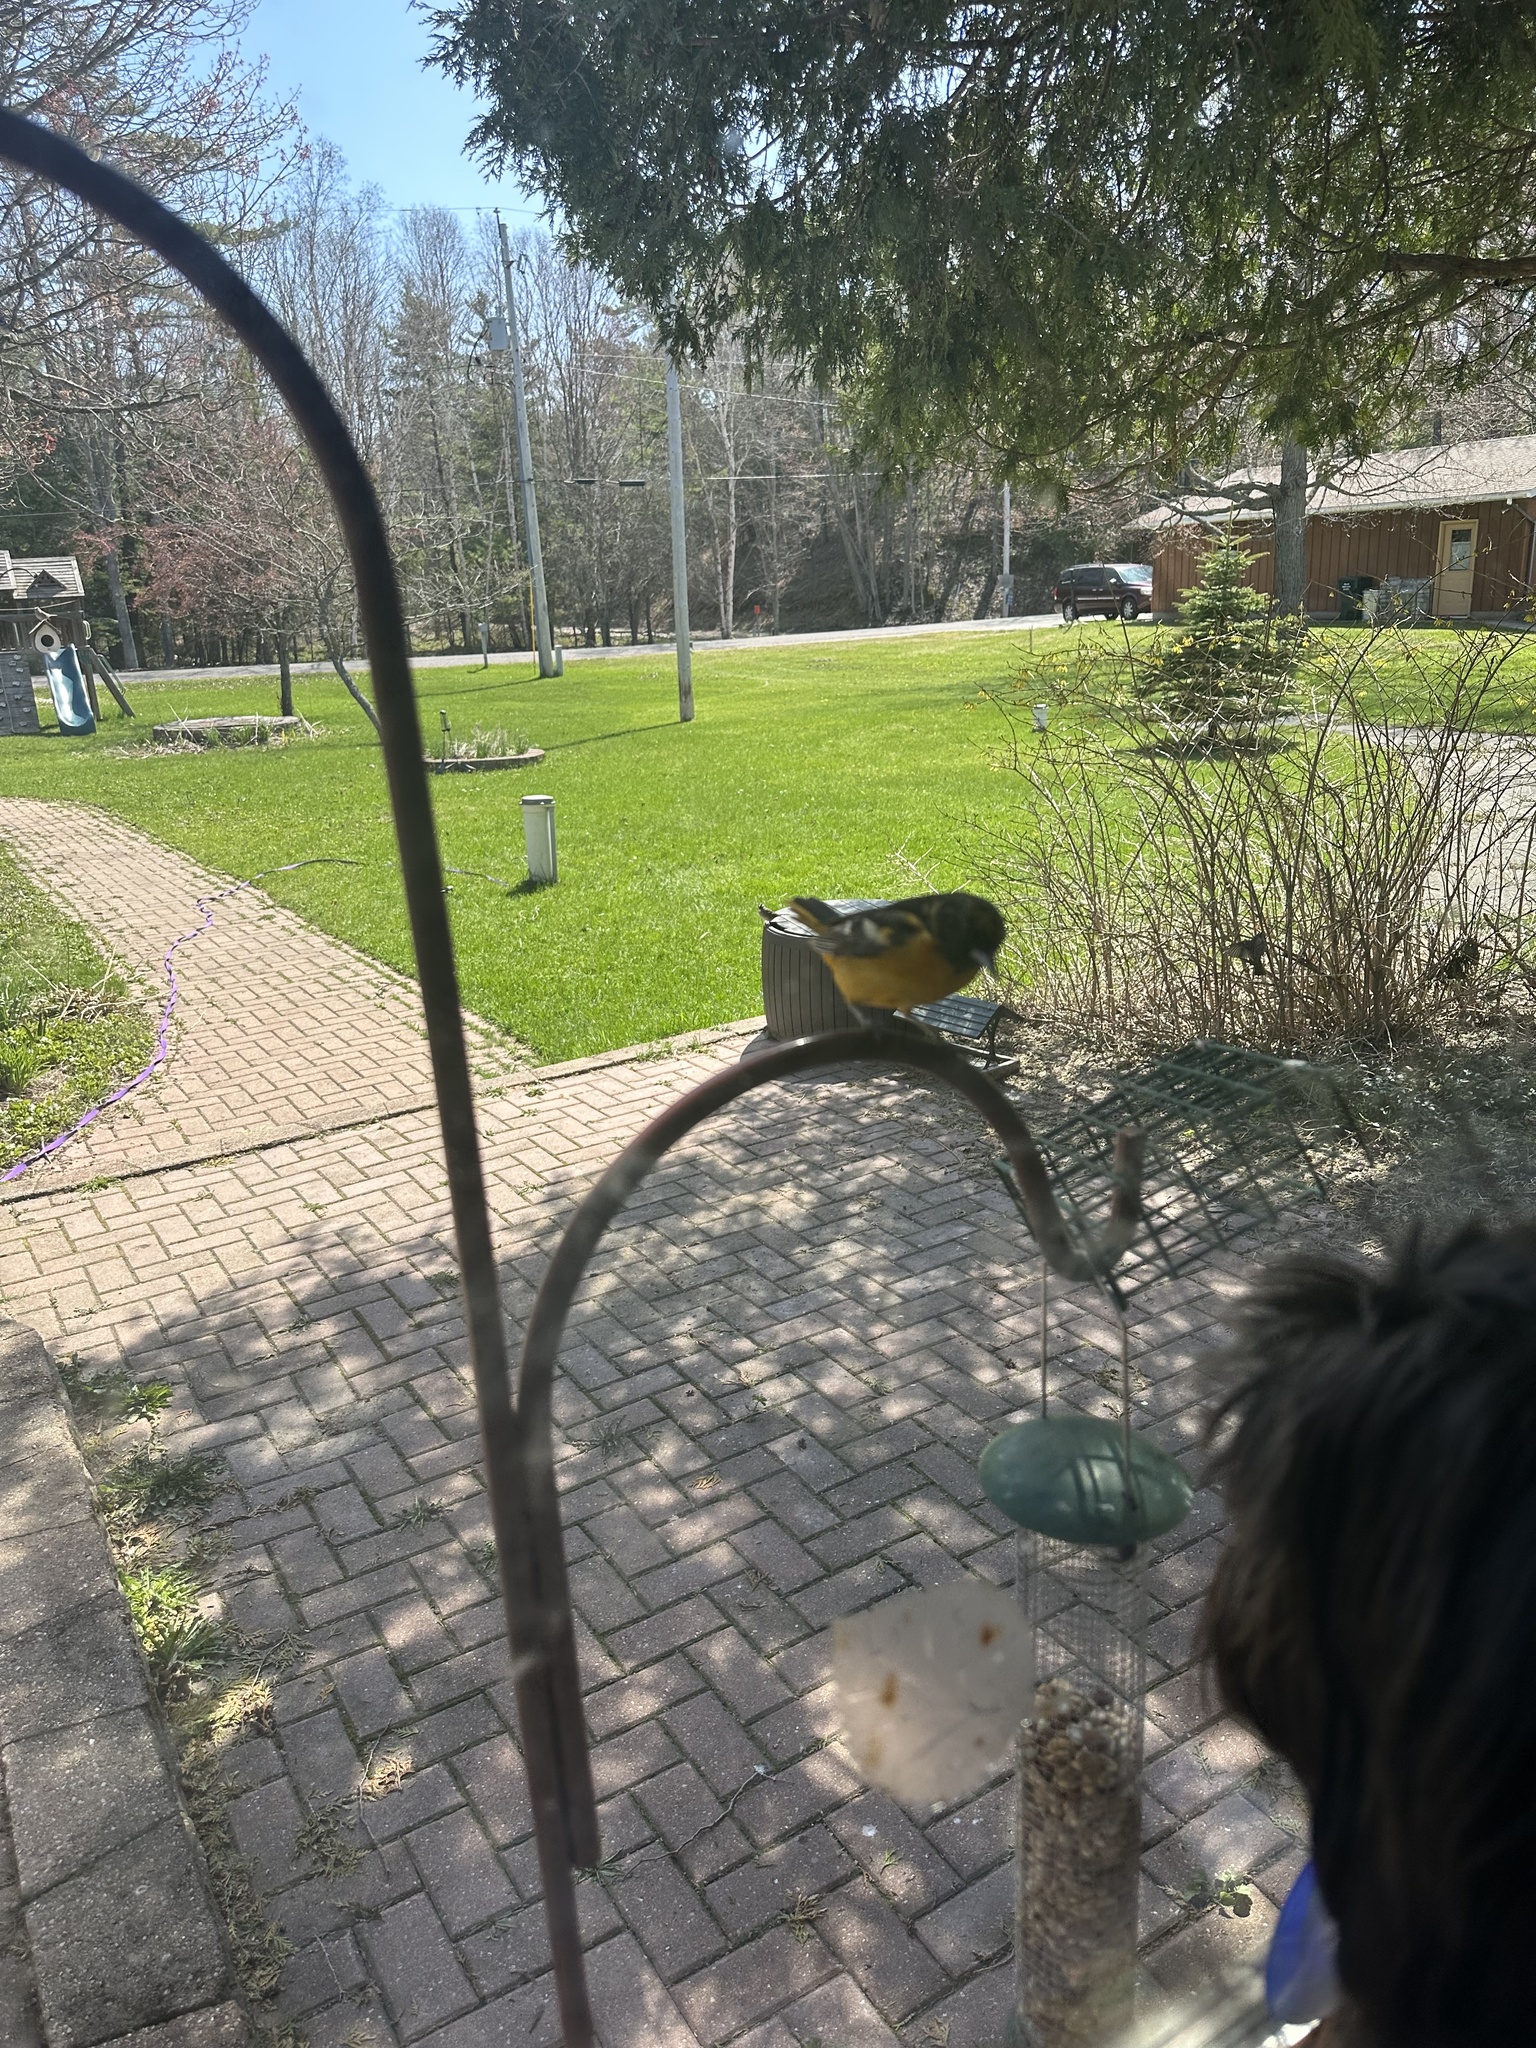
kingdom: Animalia
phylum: Chordata
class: Aves
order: Passeriformes
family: Icteridae
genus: Icterus
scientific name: Icterus galbula
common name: Baltimore oriole
